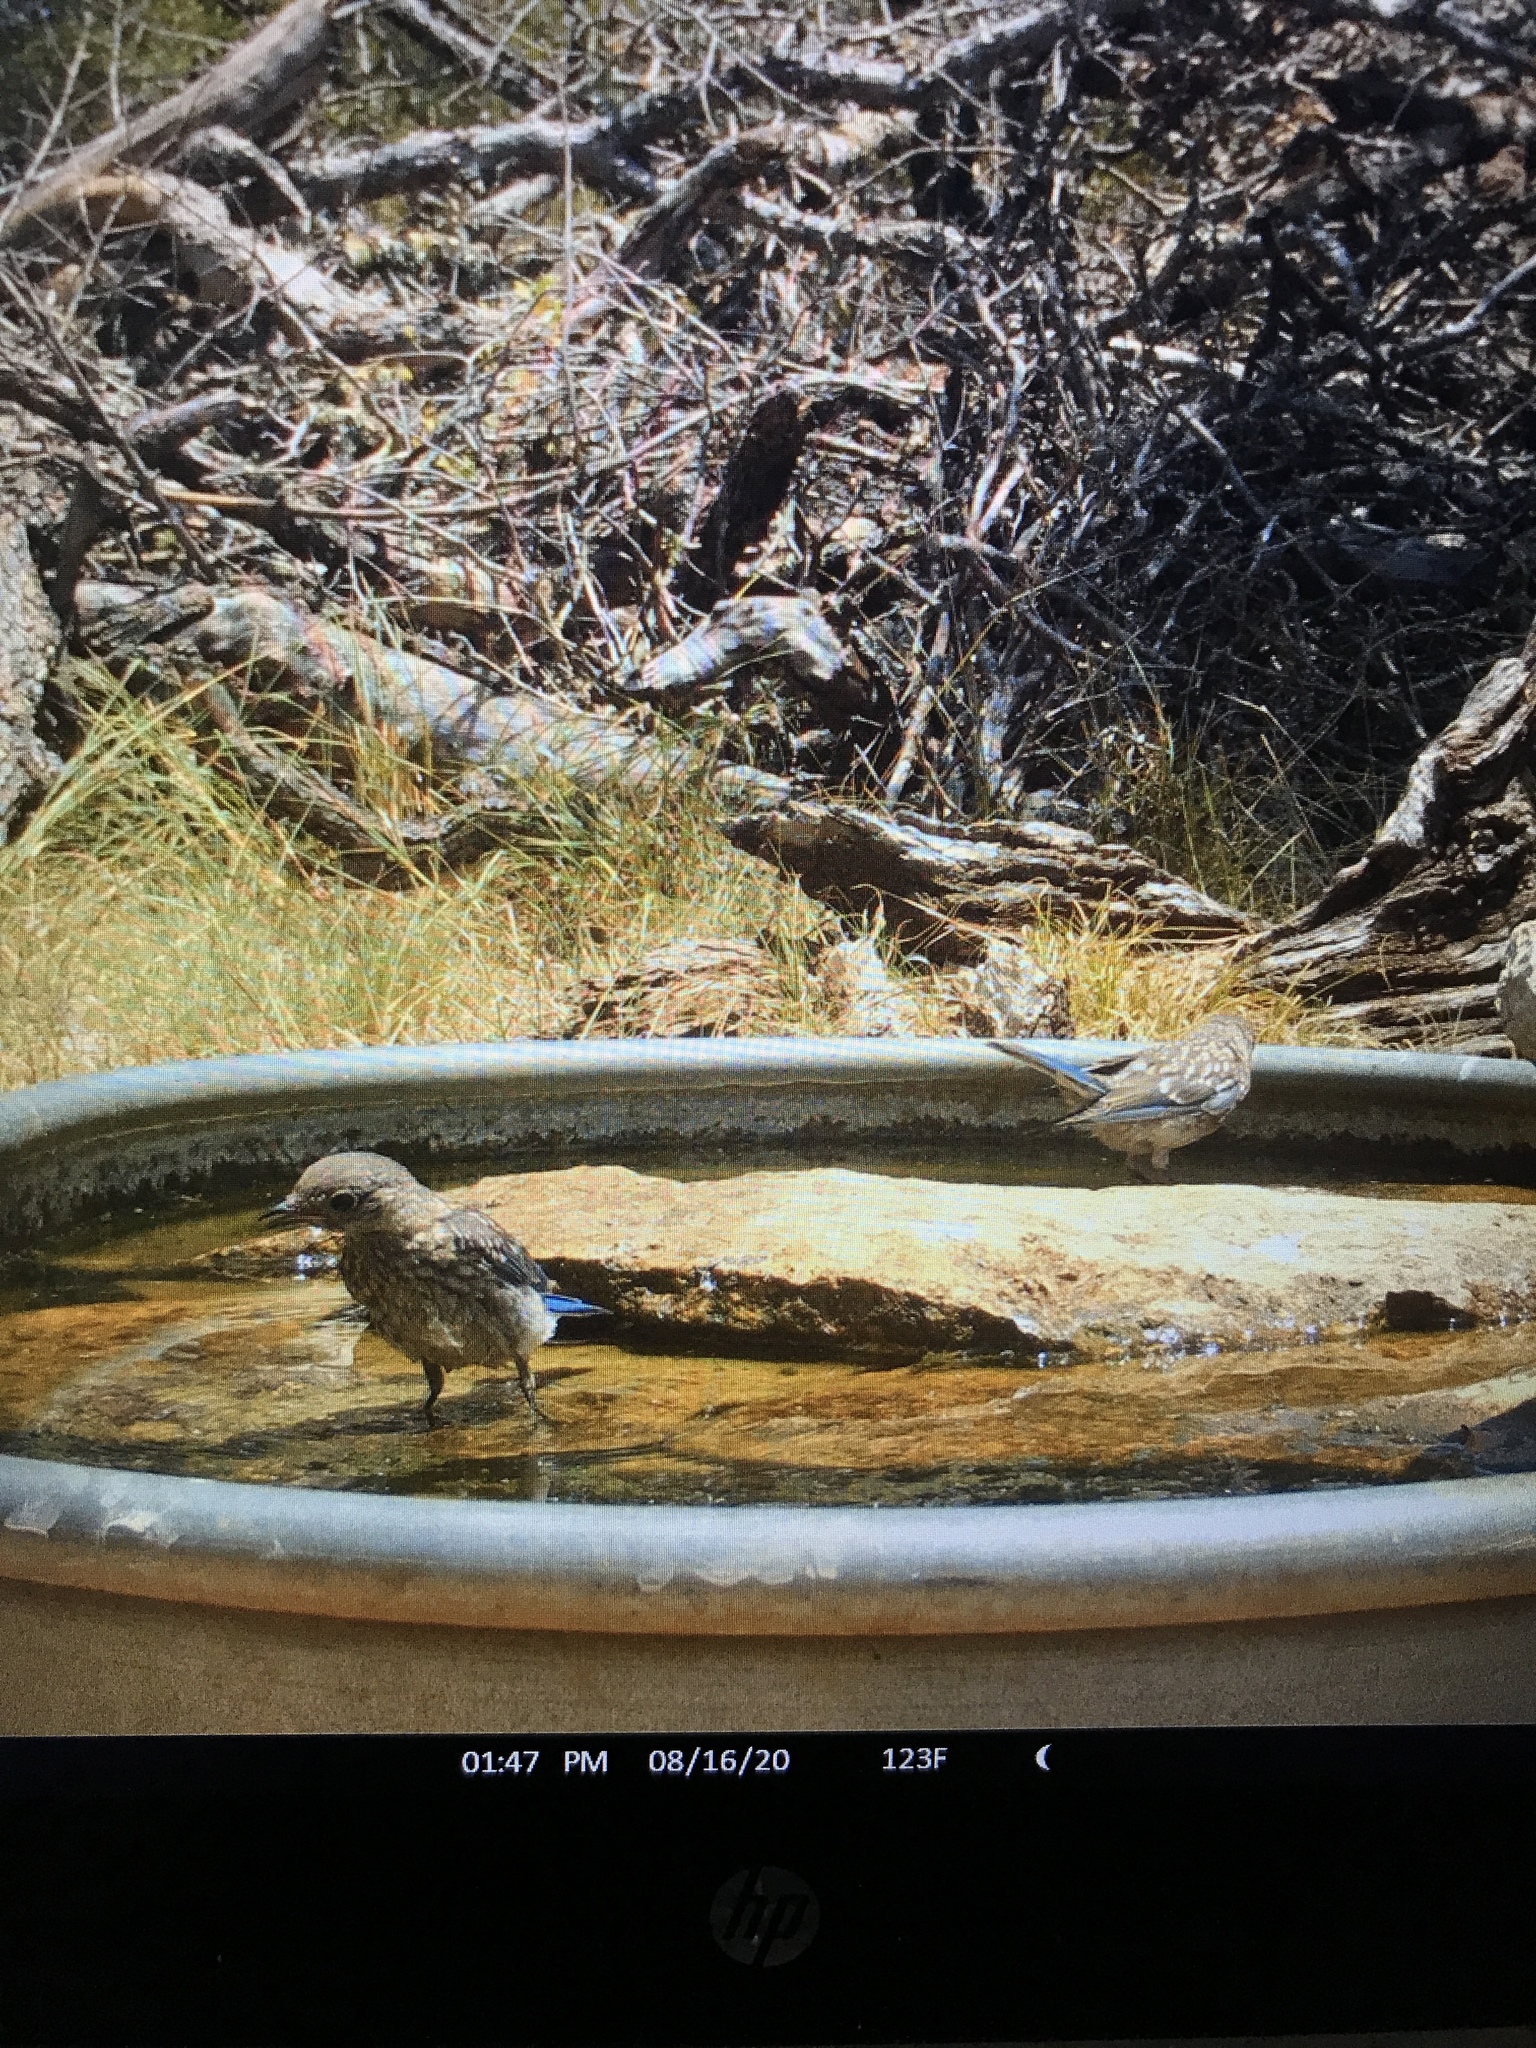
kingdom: Animalia
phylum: Chordata
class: Aves
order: Passeriformes
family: Turdidae
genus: Sialia
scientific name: Sialia sialis
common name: Eastern bluebird
